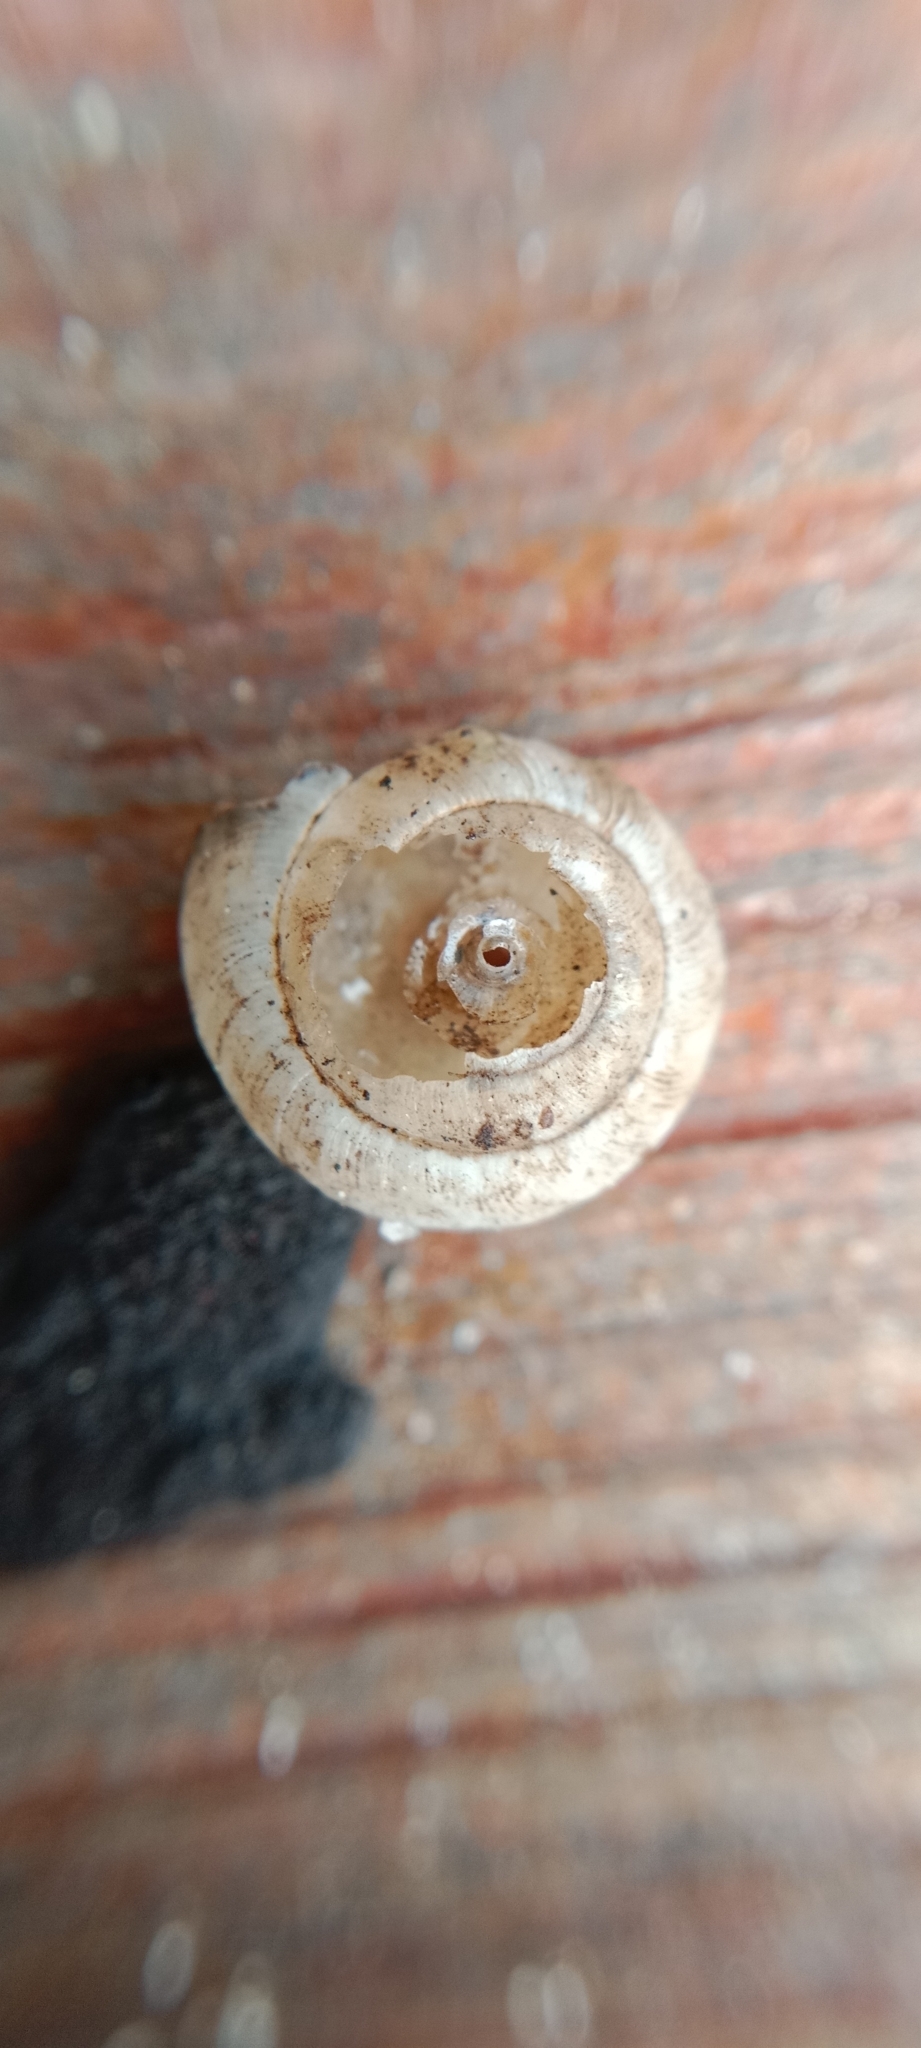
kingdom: Animalia
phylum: Mollusca
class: Gastropoda
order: Stylommatophora
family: Hygromiidae
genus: Trochulus
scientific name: Trochulus hispidus
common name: Hairy snail
